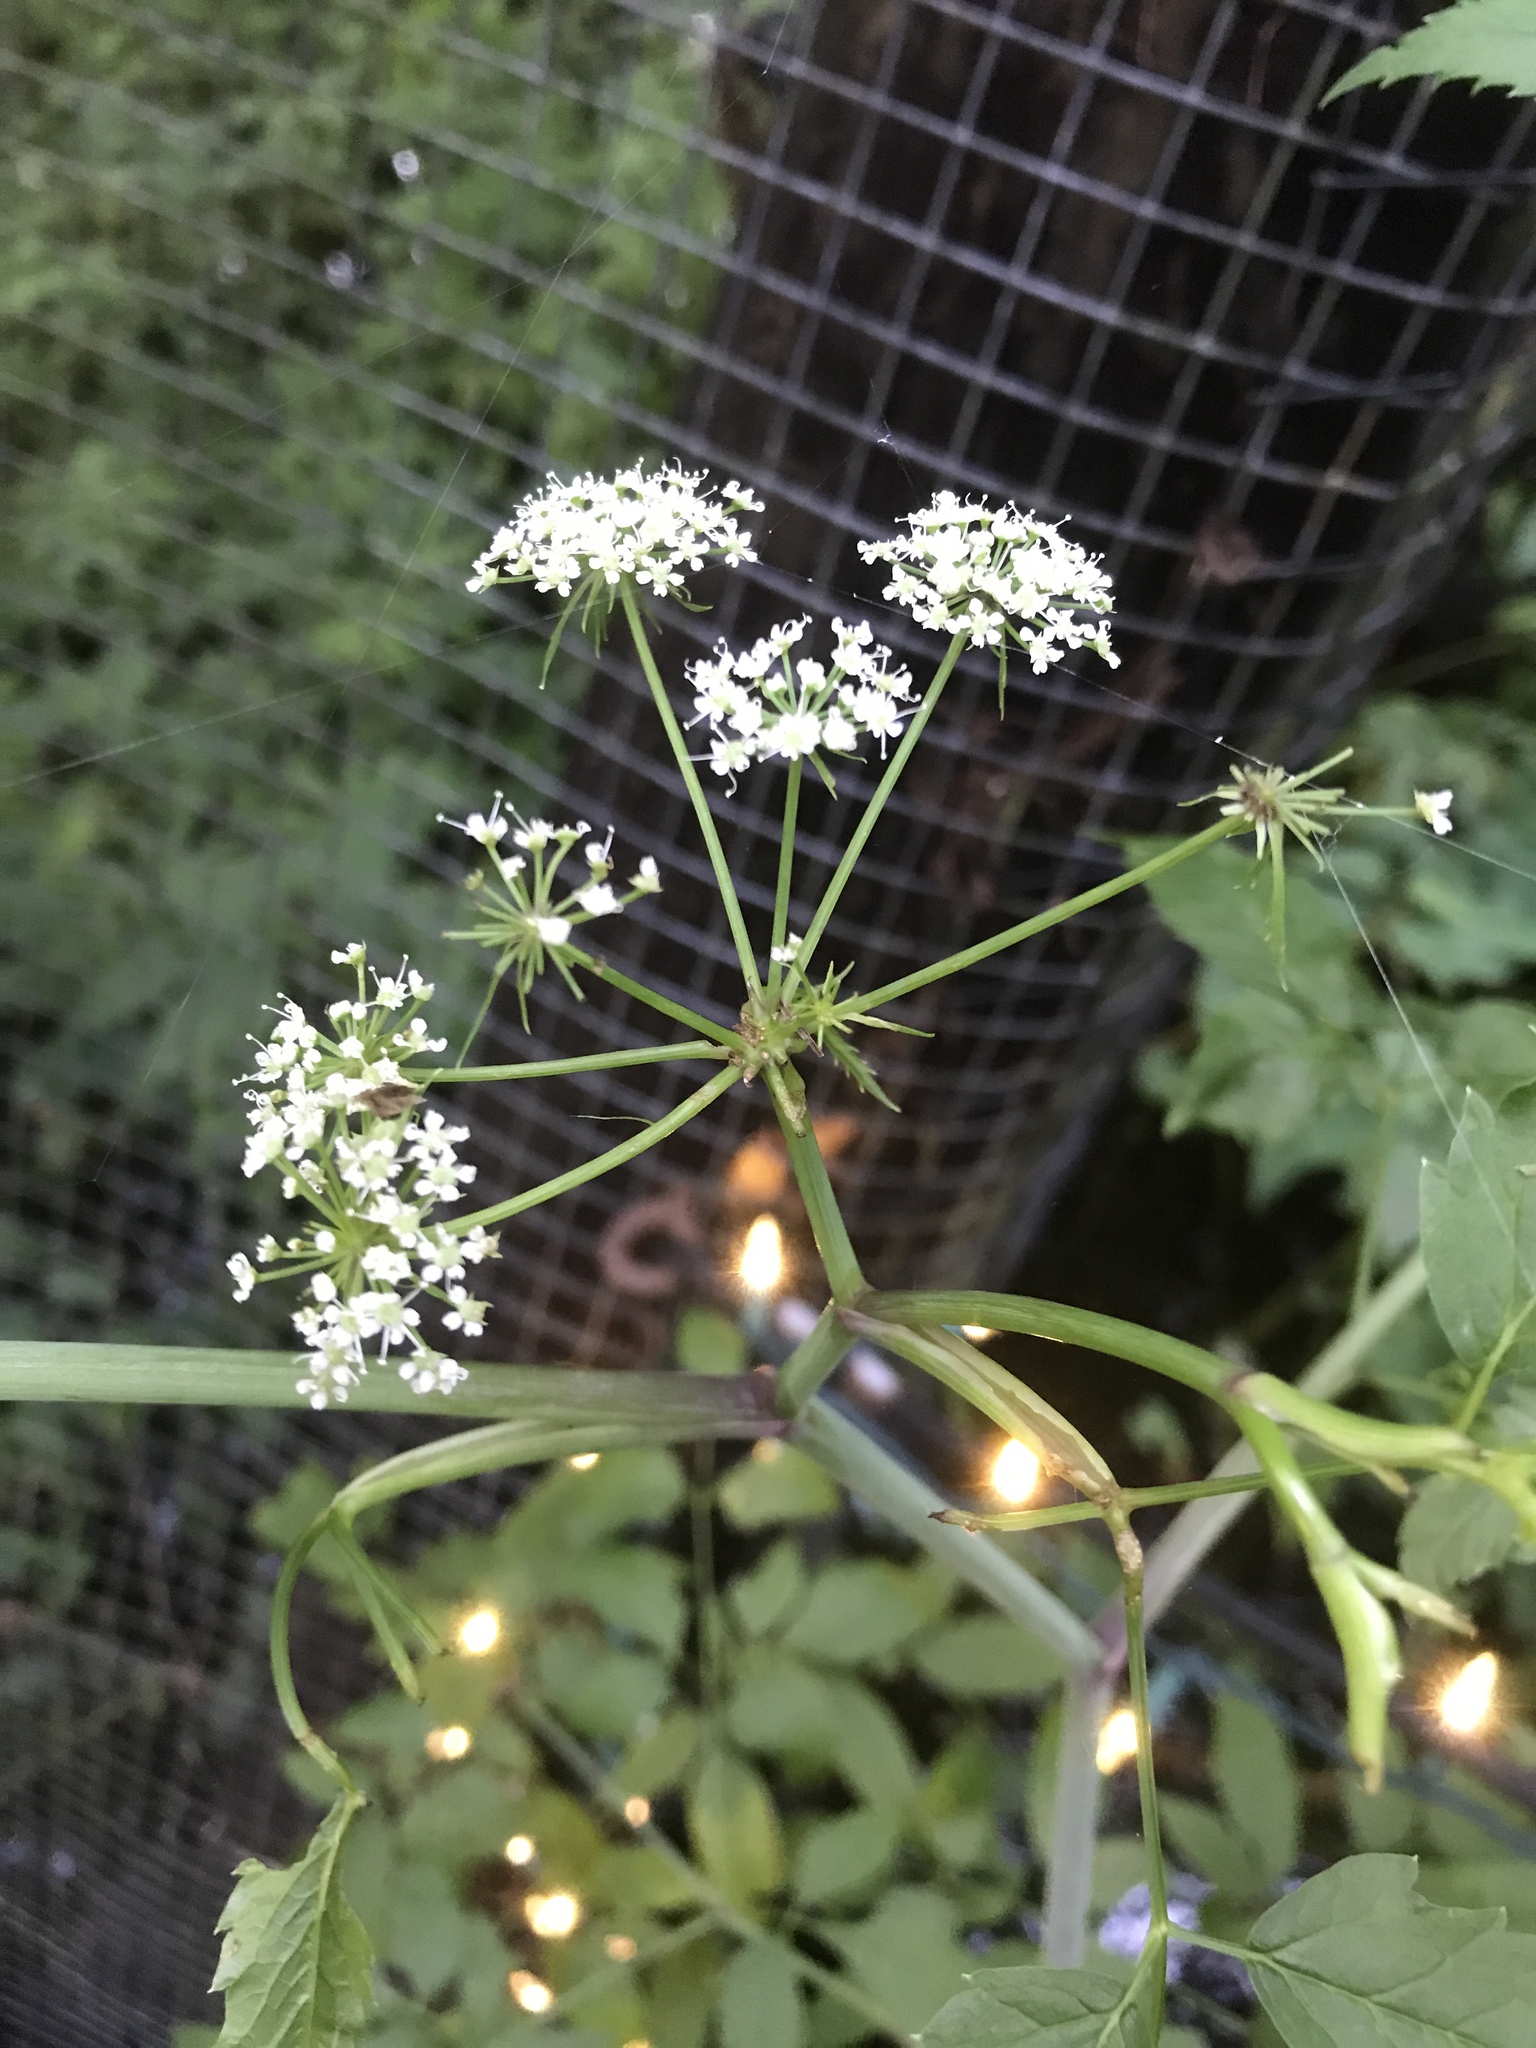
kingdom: Plantae
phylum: Tracheophyta
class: Magnoliopsida
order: Apiales
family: Apiaceae
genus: Cicuta
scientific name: Cicuta maculata
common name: Spotted cowbane
